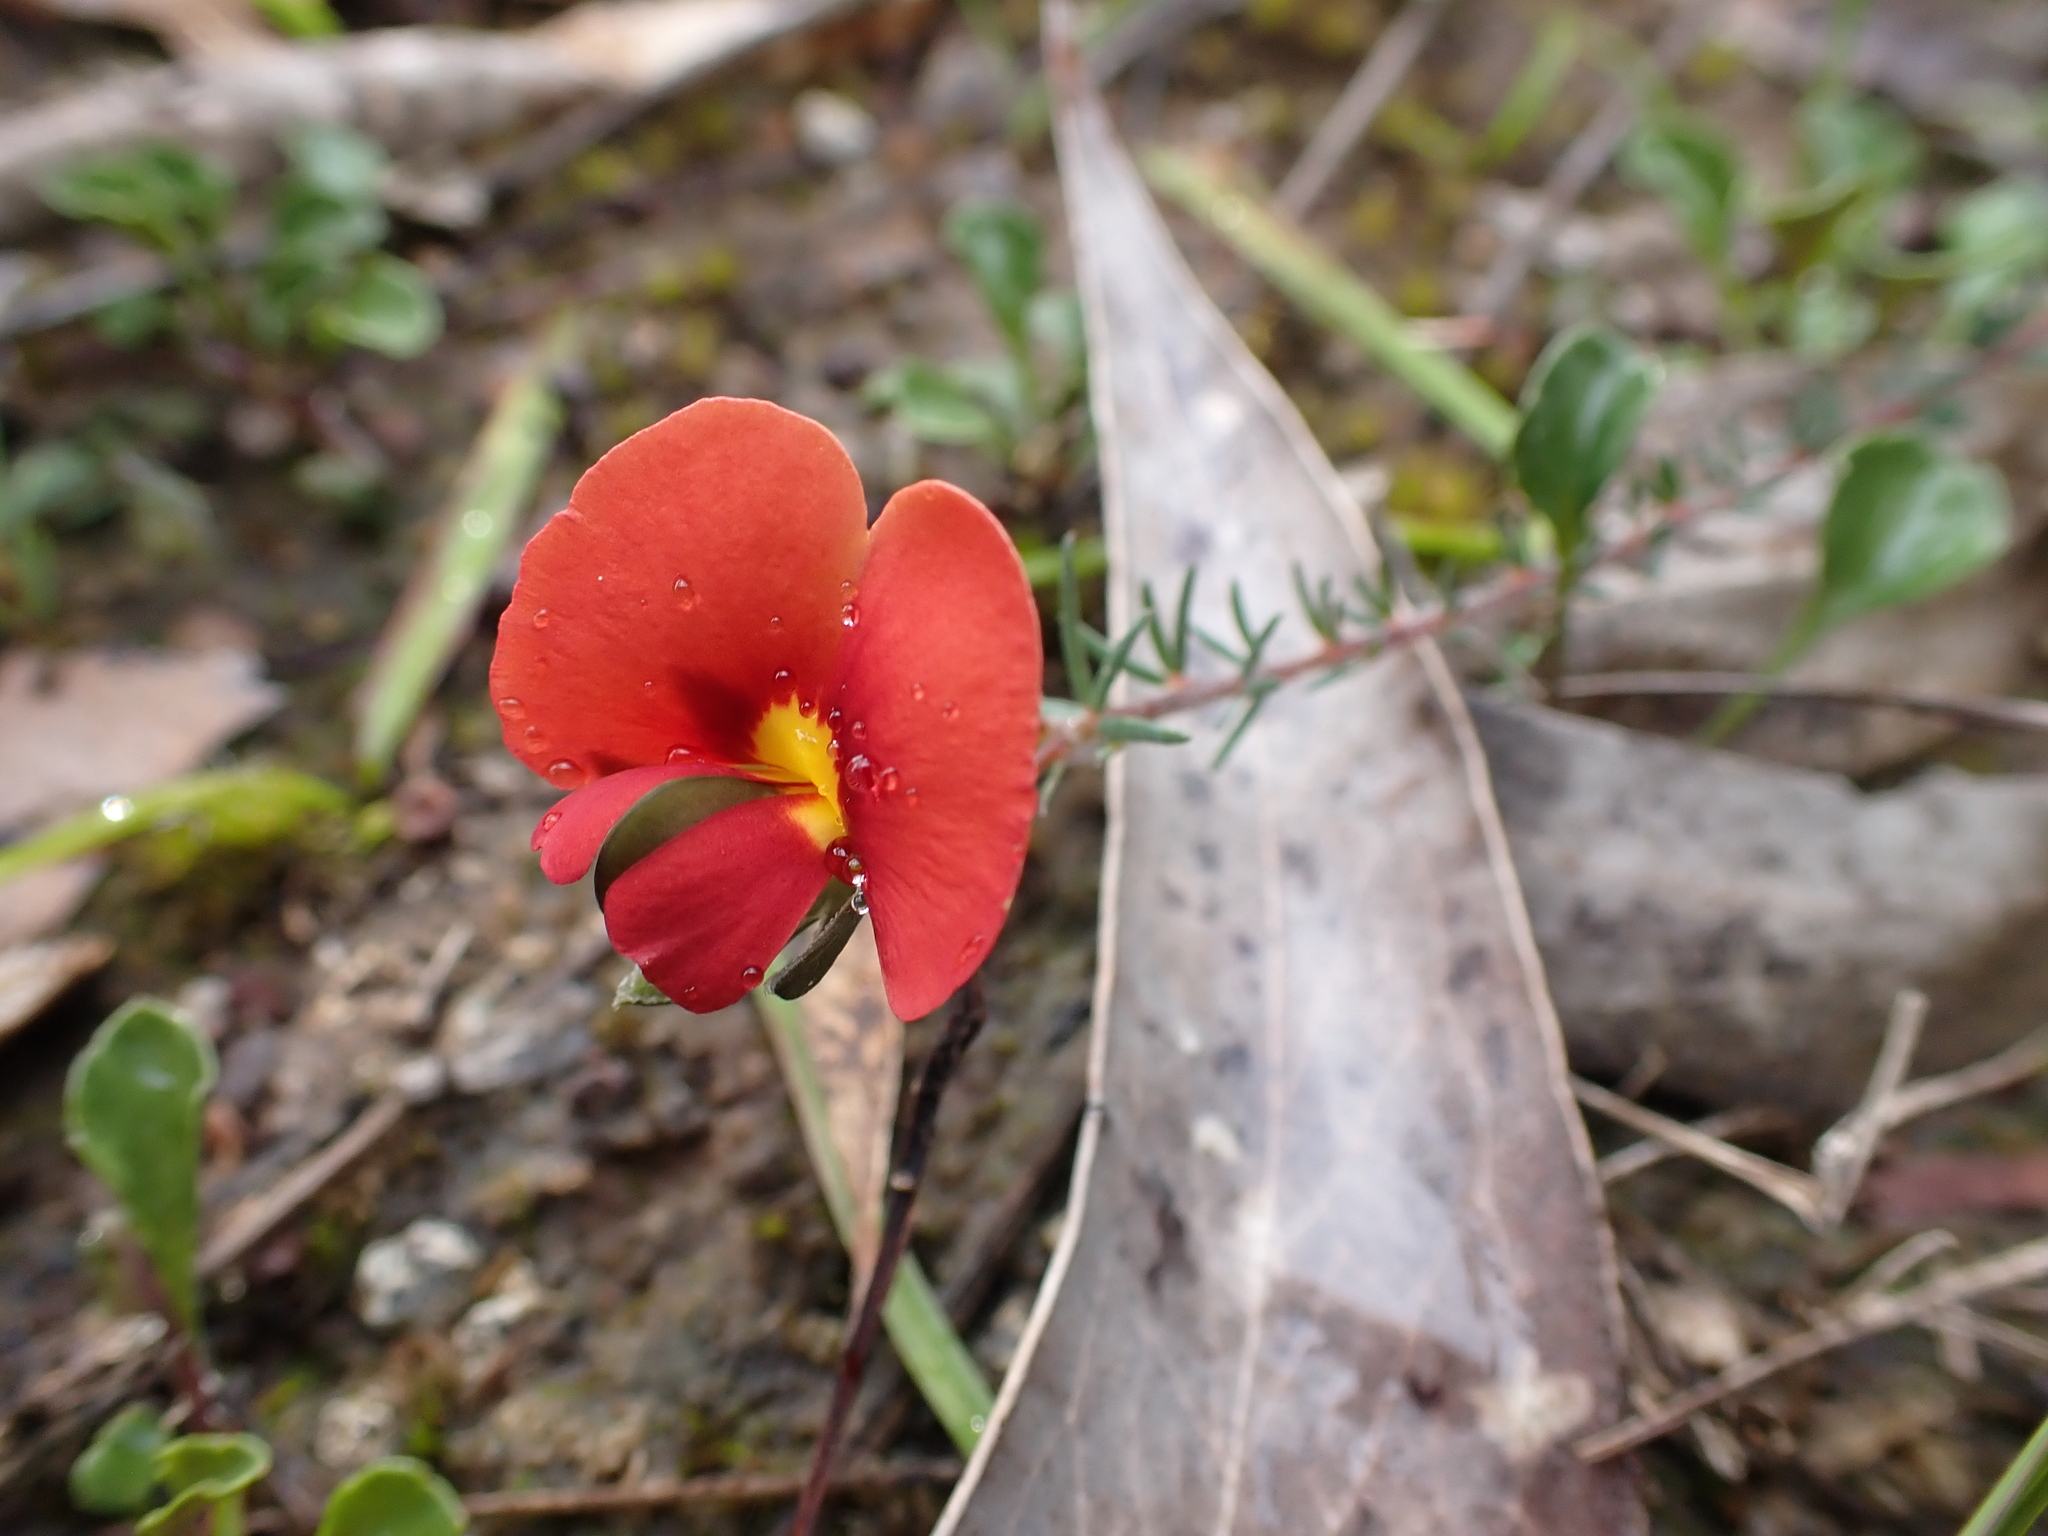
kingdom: Plantae
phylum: Tracheophyta
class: Magnoliopsida
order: Fabales
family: Fabaceae
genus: Gompholobium
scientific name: Gompholobium ecostatum
